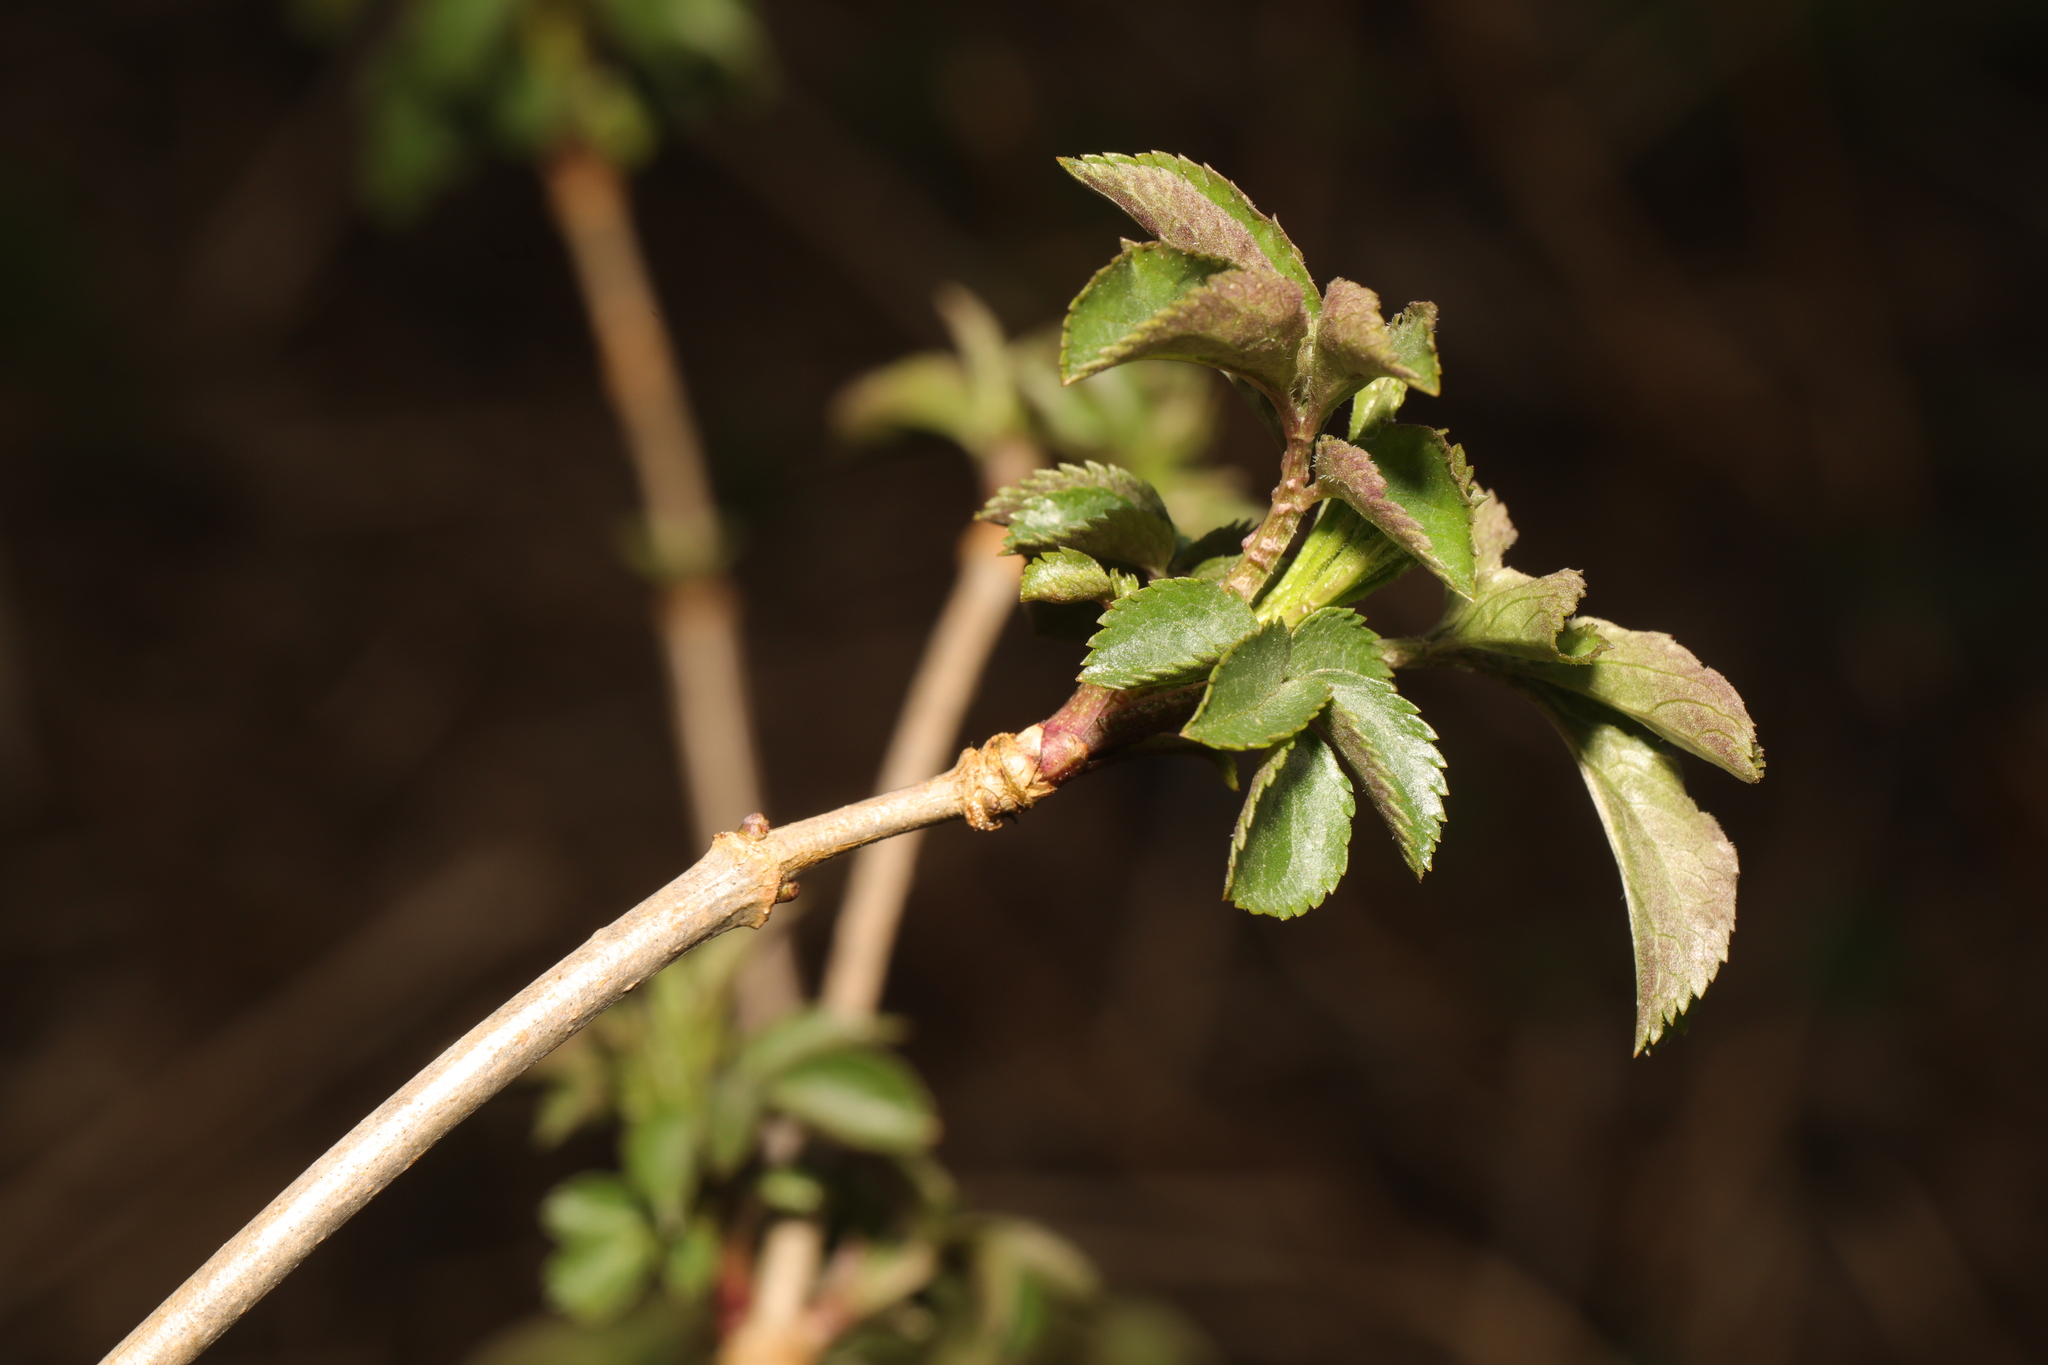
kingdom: Plantae
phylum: Tracheophyta
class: Magnoliopsida
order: Dipsacales
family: Viburnaceae
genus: Sambucus
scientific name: Sambucus nigra
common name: Elder
